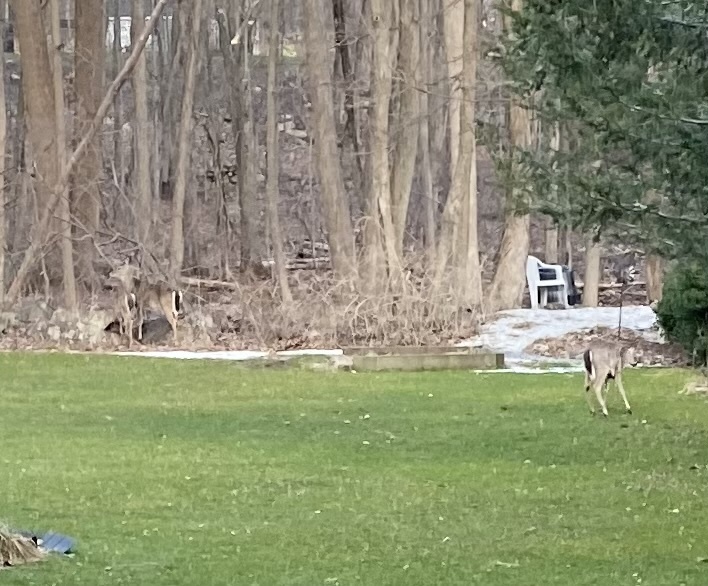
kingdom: Animalia
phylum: Chordata
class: Mammalia
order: Artiodactyla
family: Cervidae
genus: Odocoileus
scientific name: Odocoileus virginianus
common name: White-tailed deer
